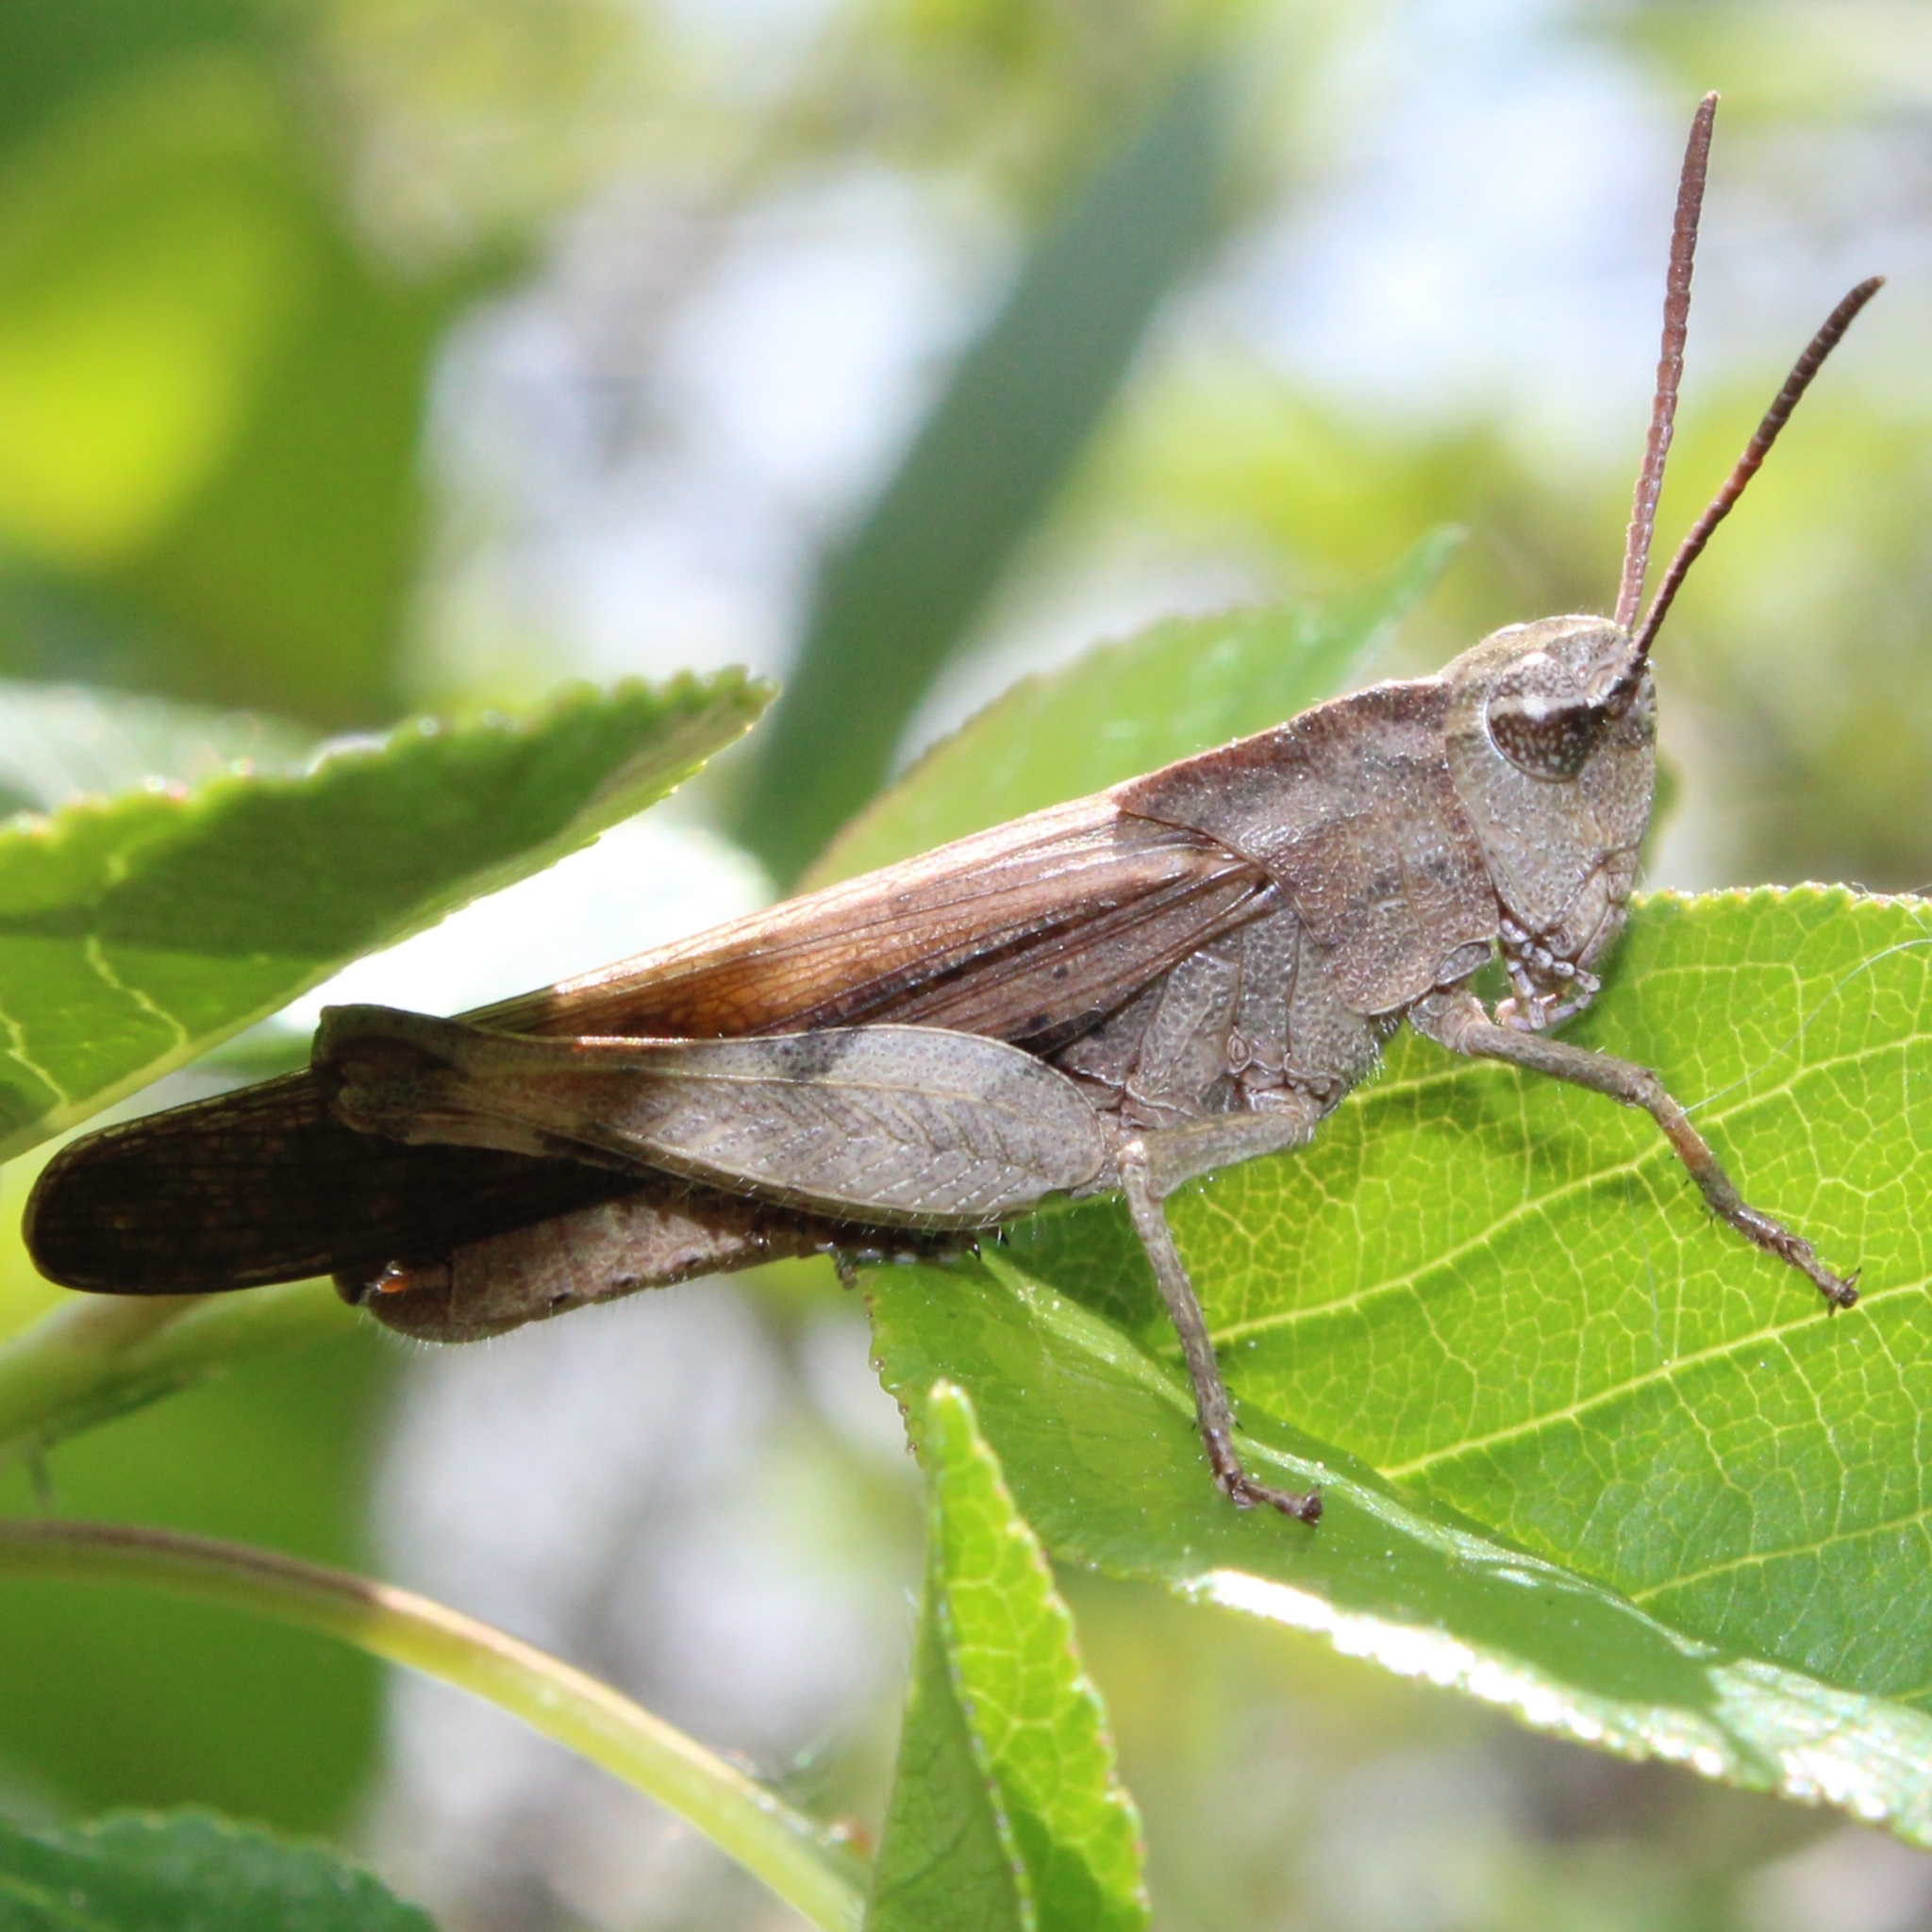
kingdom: Animalia
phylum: Arthropoda
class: Insecta
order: Orthoptera
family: Acrididae
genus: Chortophaga
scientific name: Chortophaga viridifasciata
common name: Green-striped grasshopper
